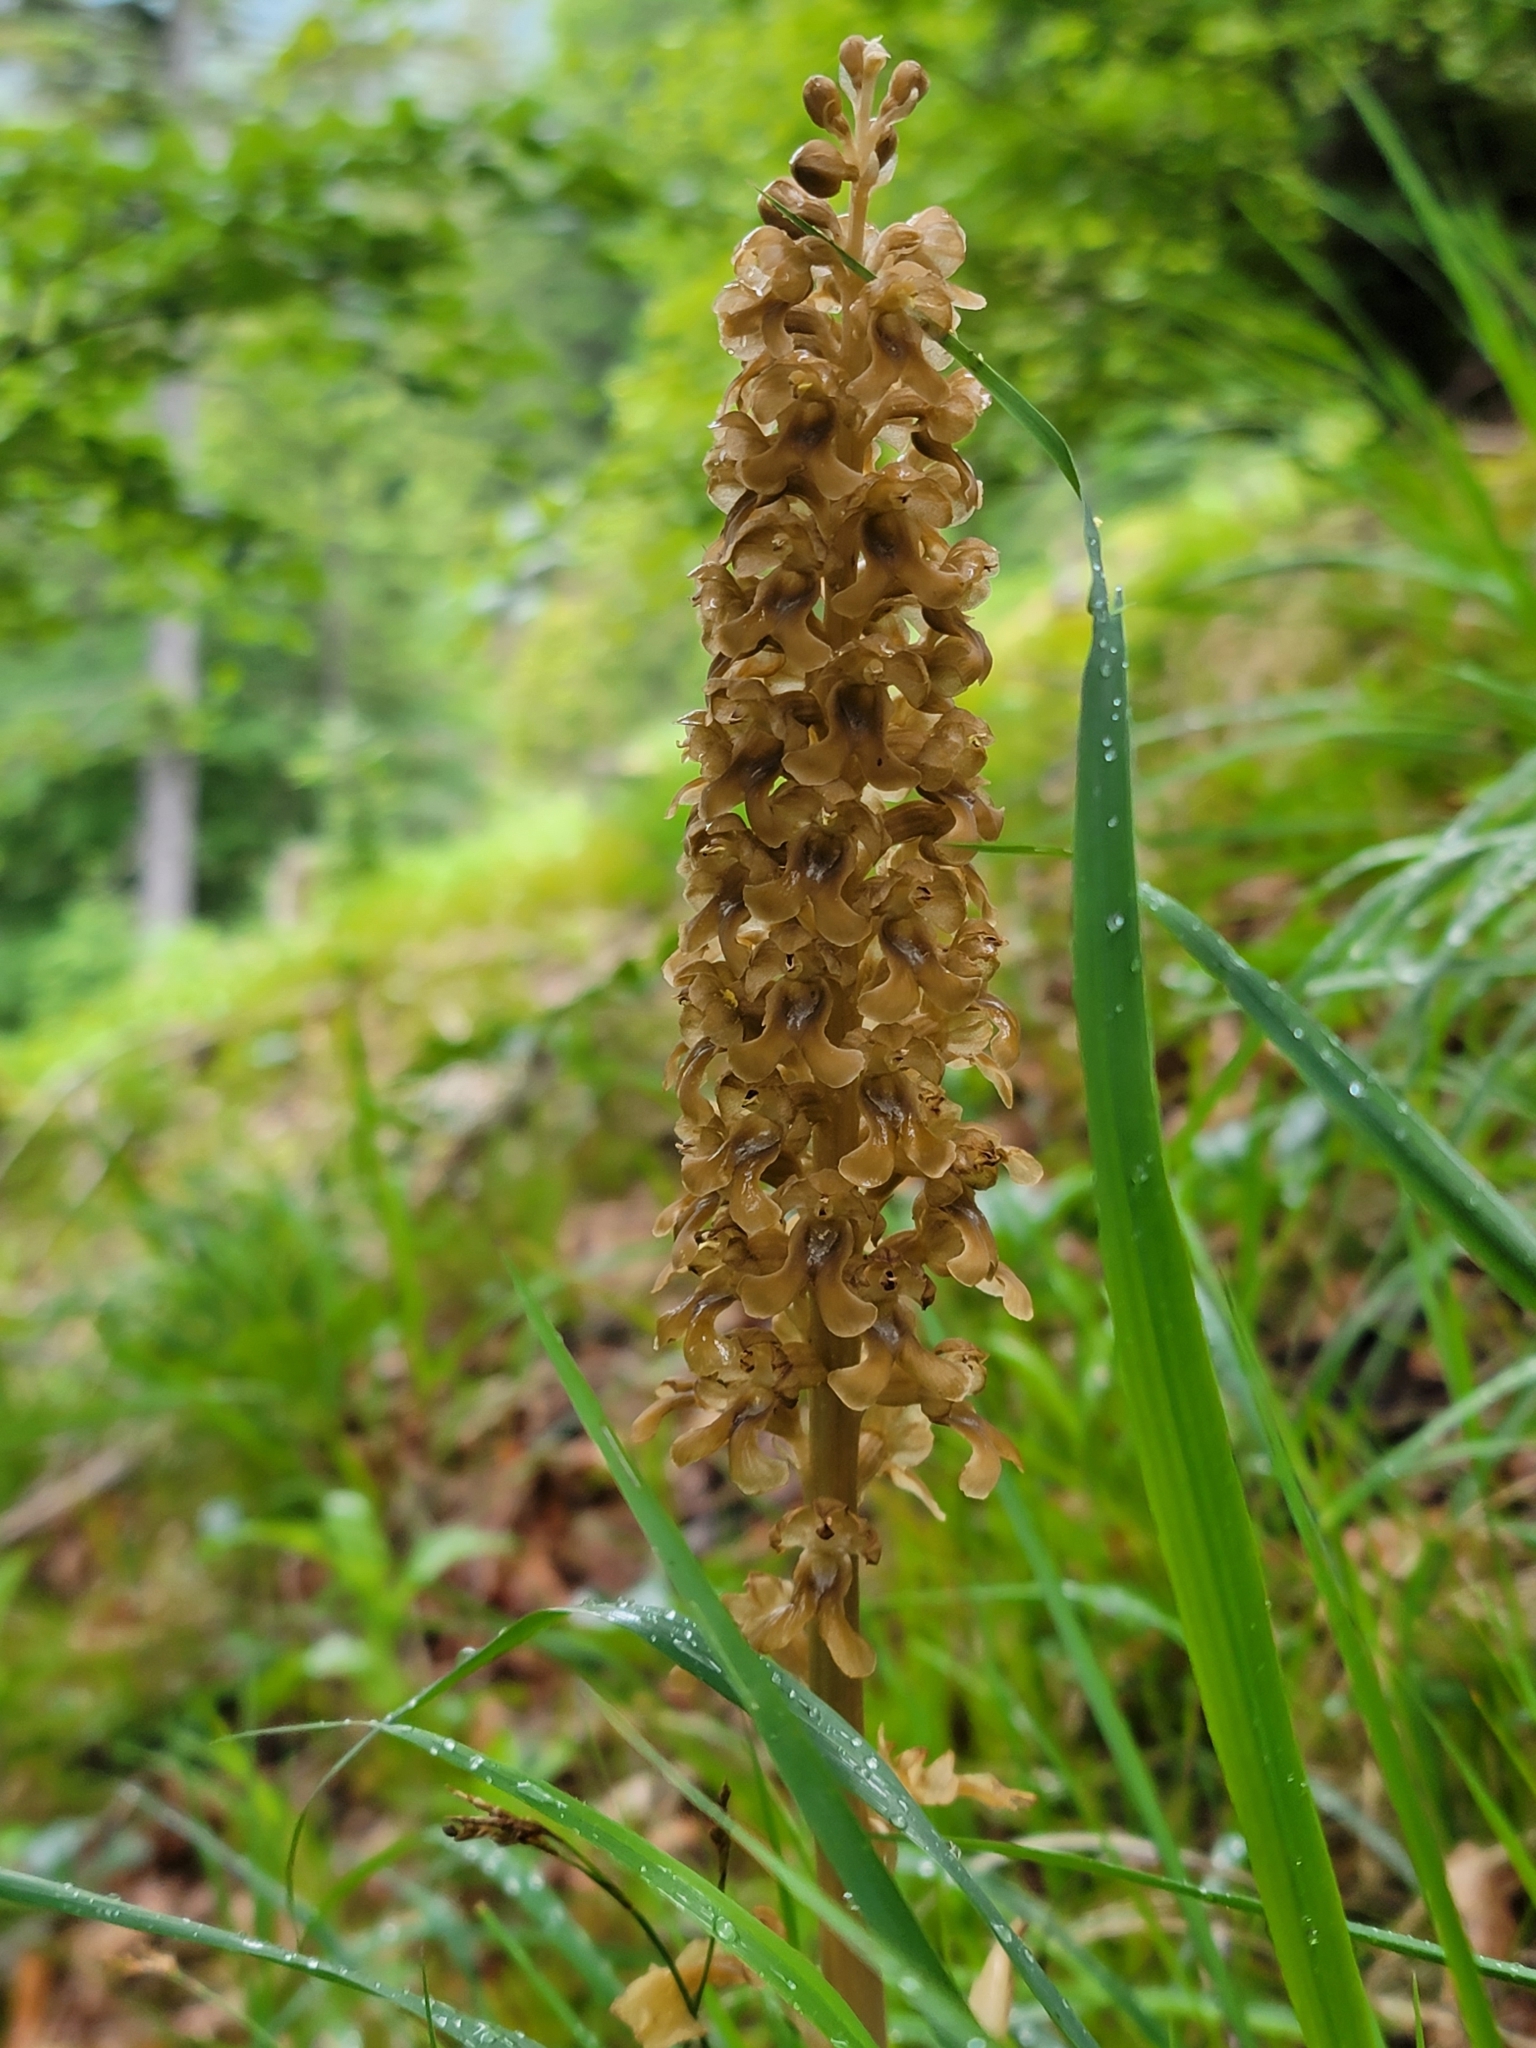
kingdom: Plantae
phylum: Tracheophyta
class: Liliopsida
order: Asparagales
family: Orchidaceae
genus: Neottia
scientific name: Neottia nidus-avis
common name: Bird's-nest orchid
